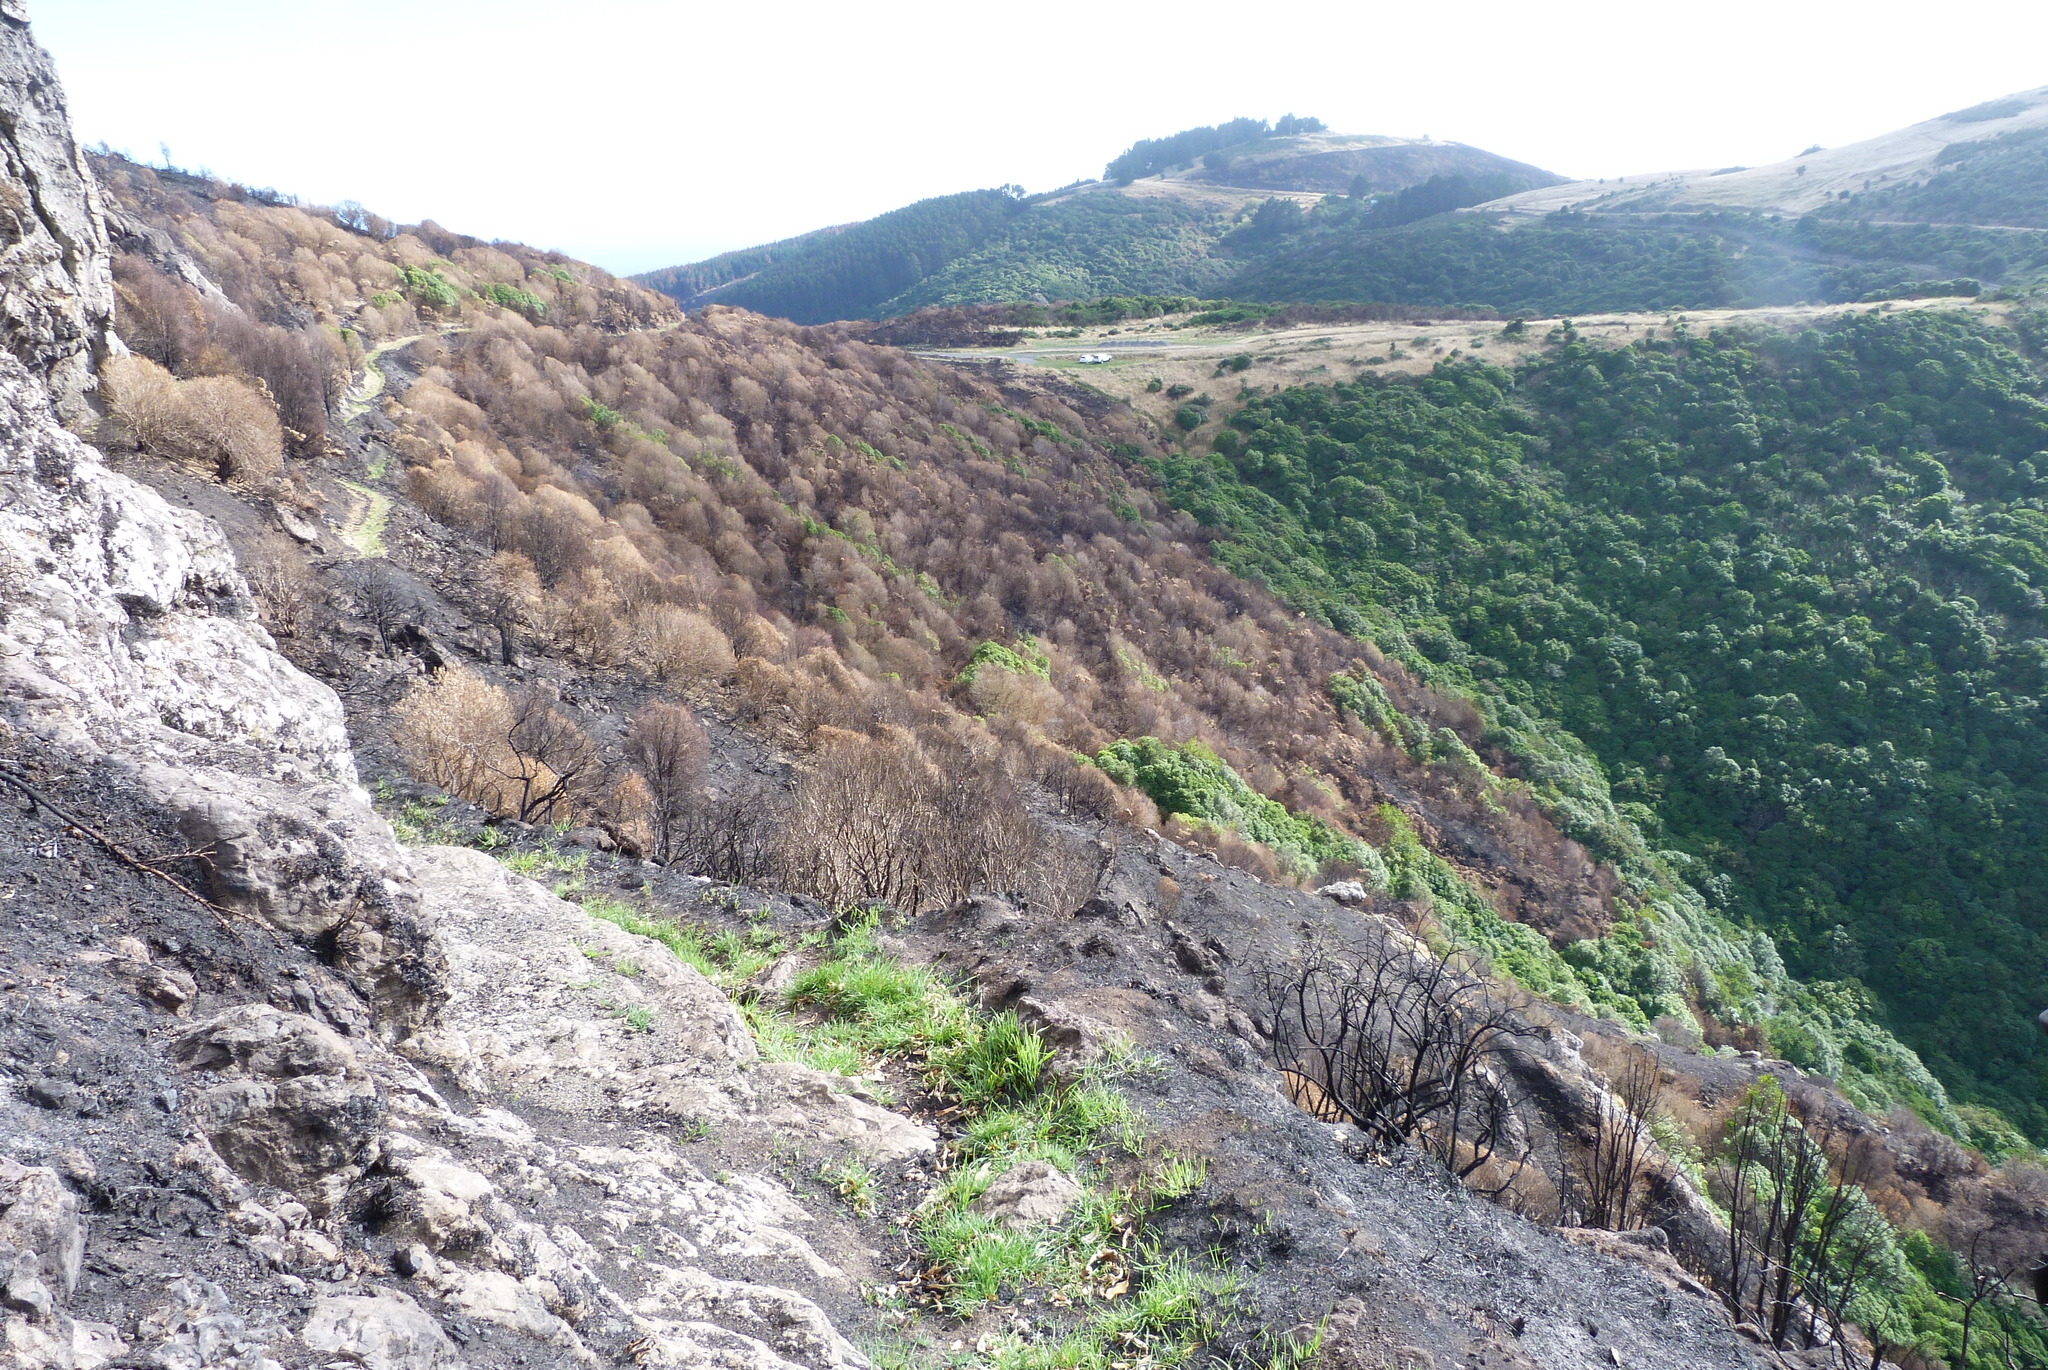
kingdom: Plantae
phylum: Tracheophyta
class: Magnoliopsida
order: Malpighiales
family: Violaceae
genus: Melicytus
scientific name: Melicytus ramiflorus
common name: Mahoe
